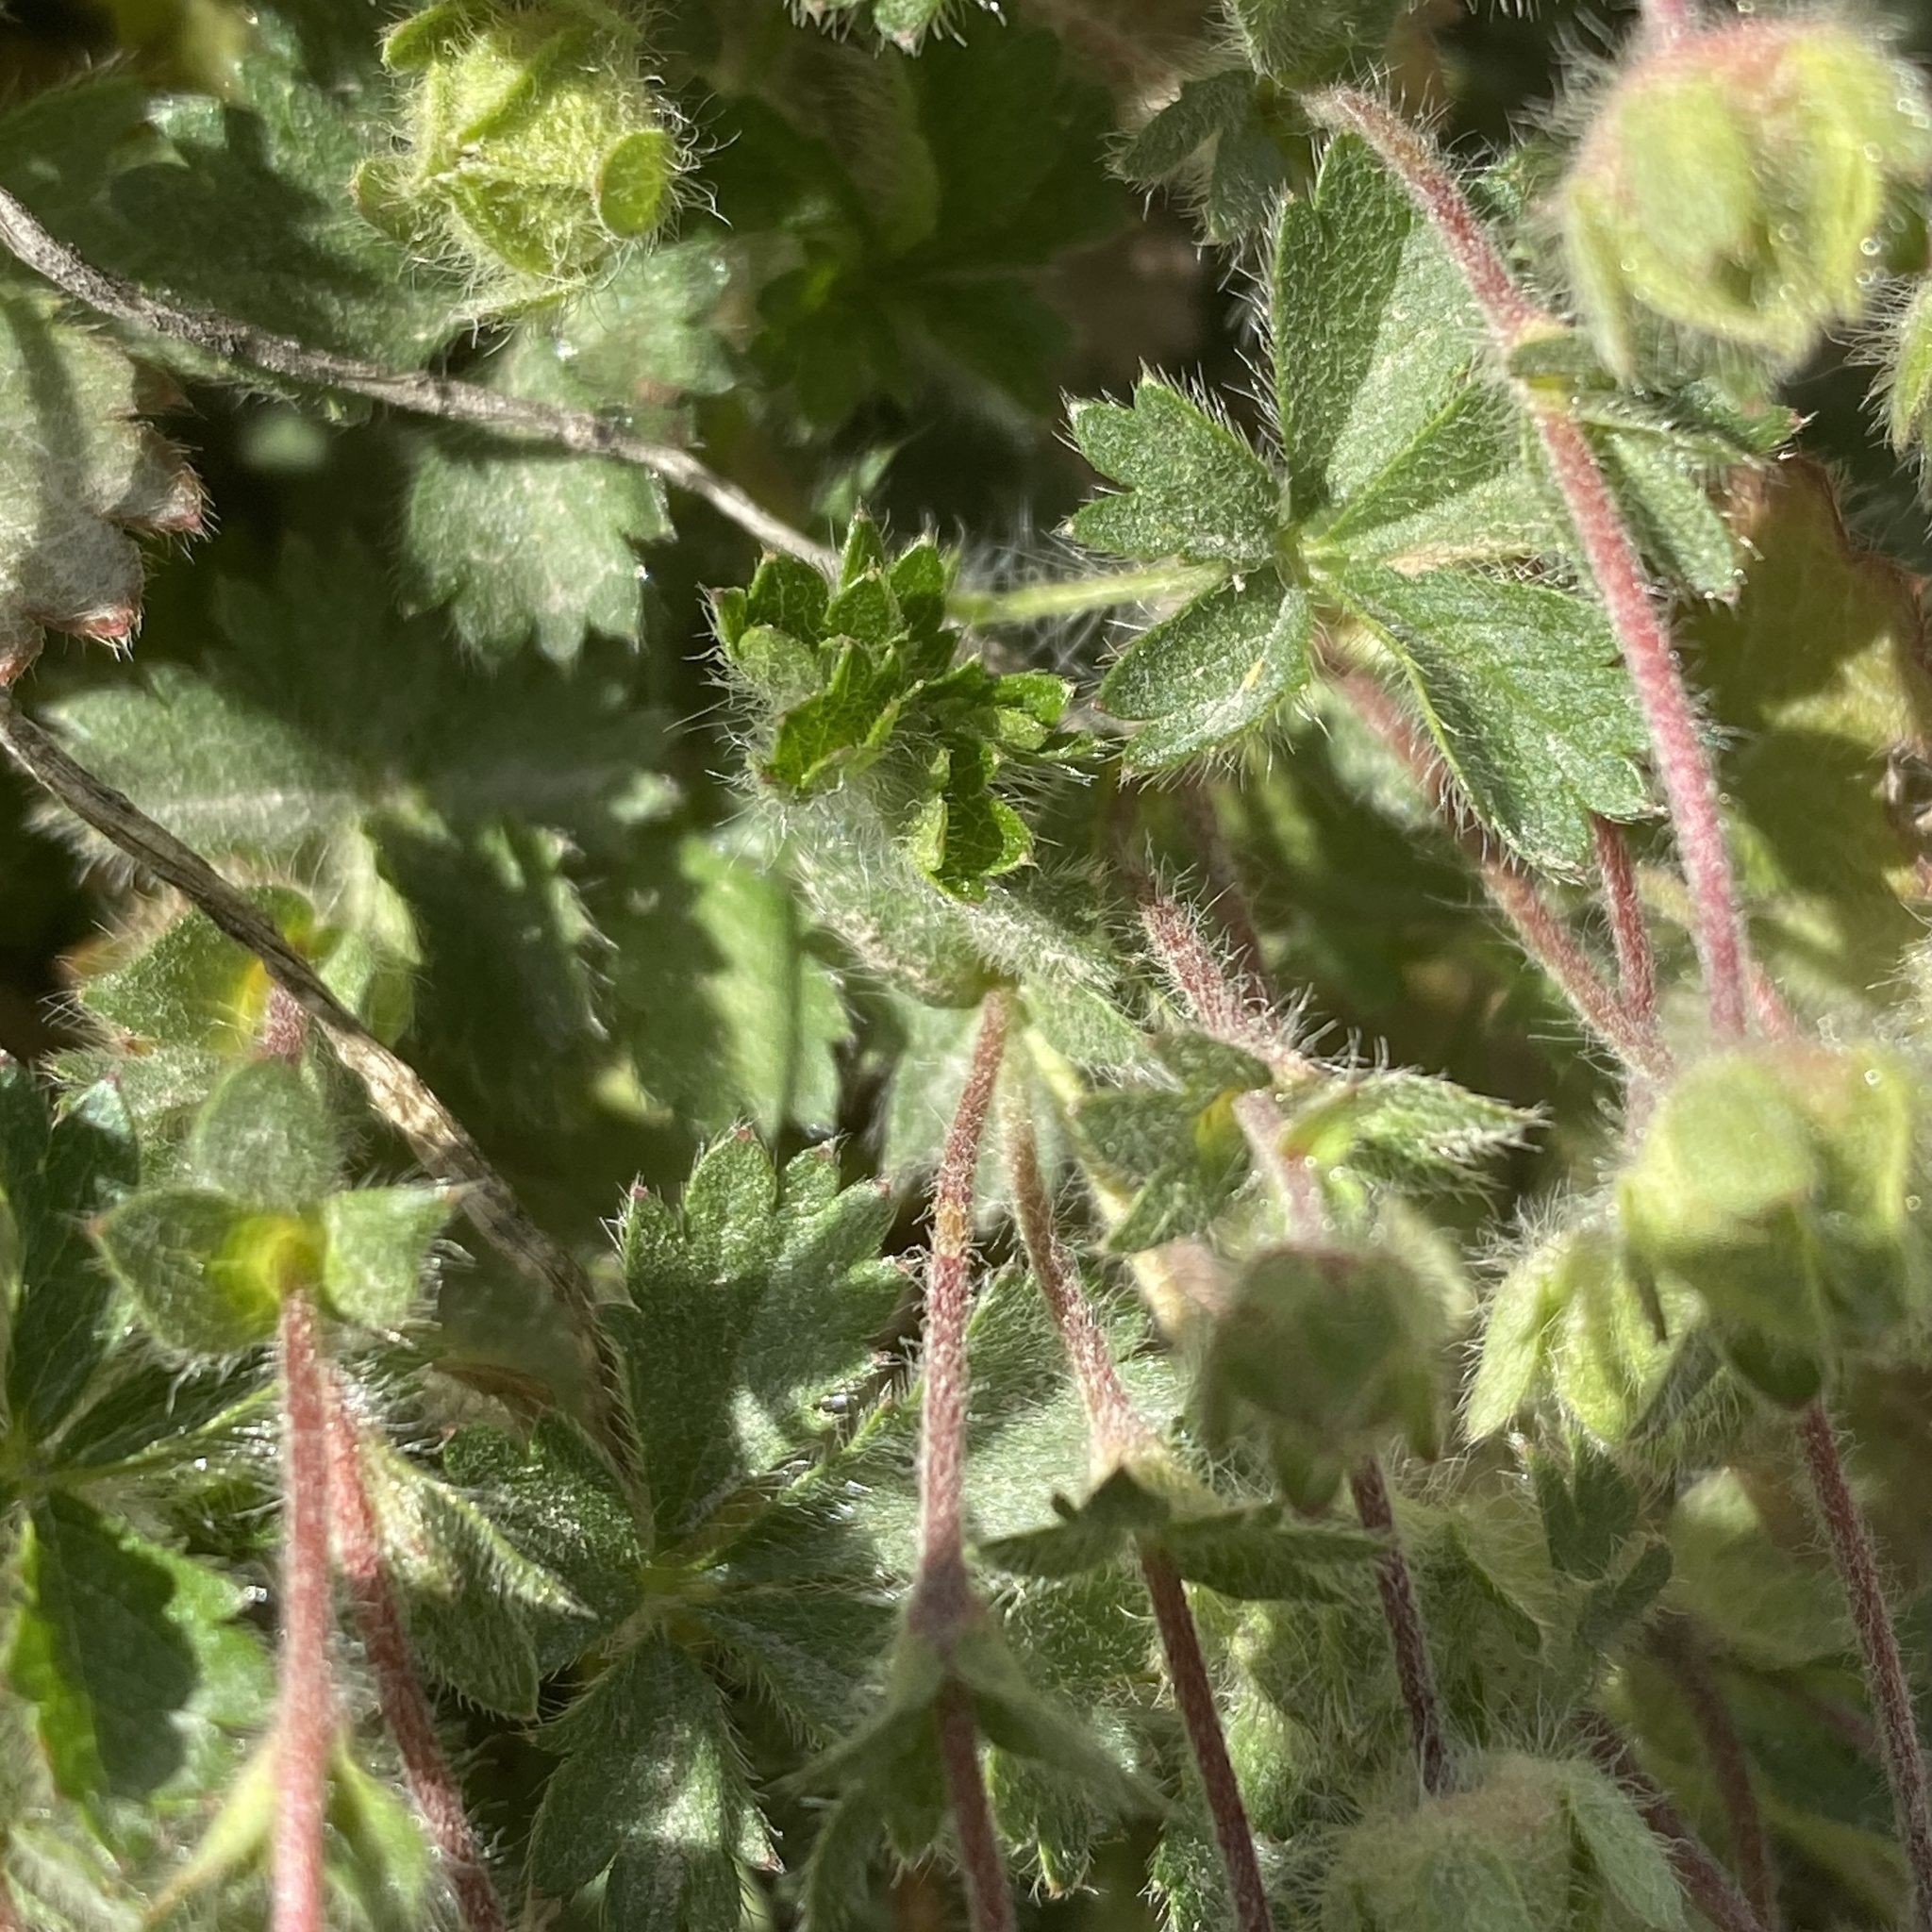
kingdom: Plantae
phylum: Tracheophyta
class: Magnoliopsida
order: Rosales
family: Rosaceae
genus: Potentilla
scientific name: Potentilla verna
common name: Spring cinquefoil
